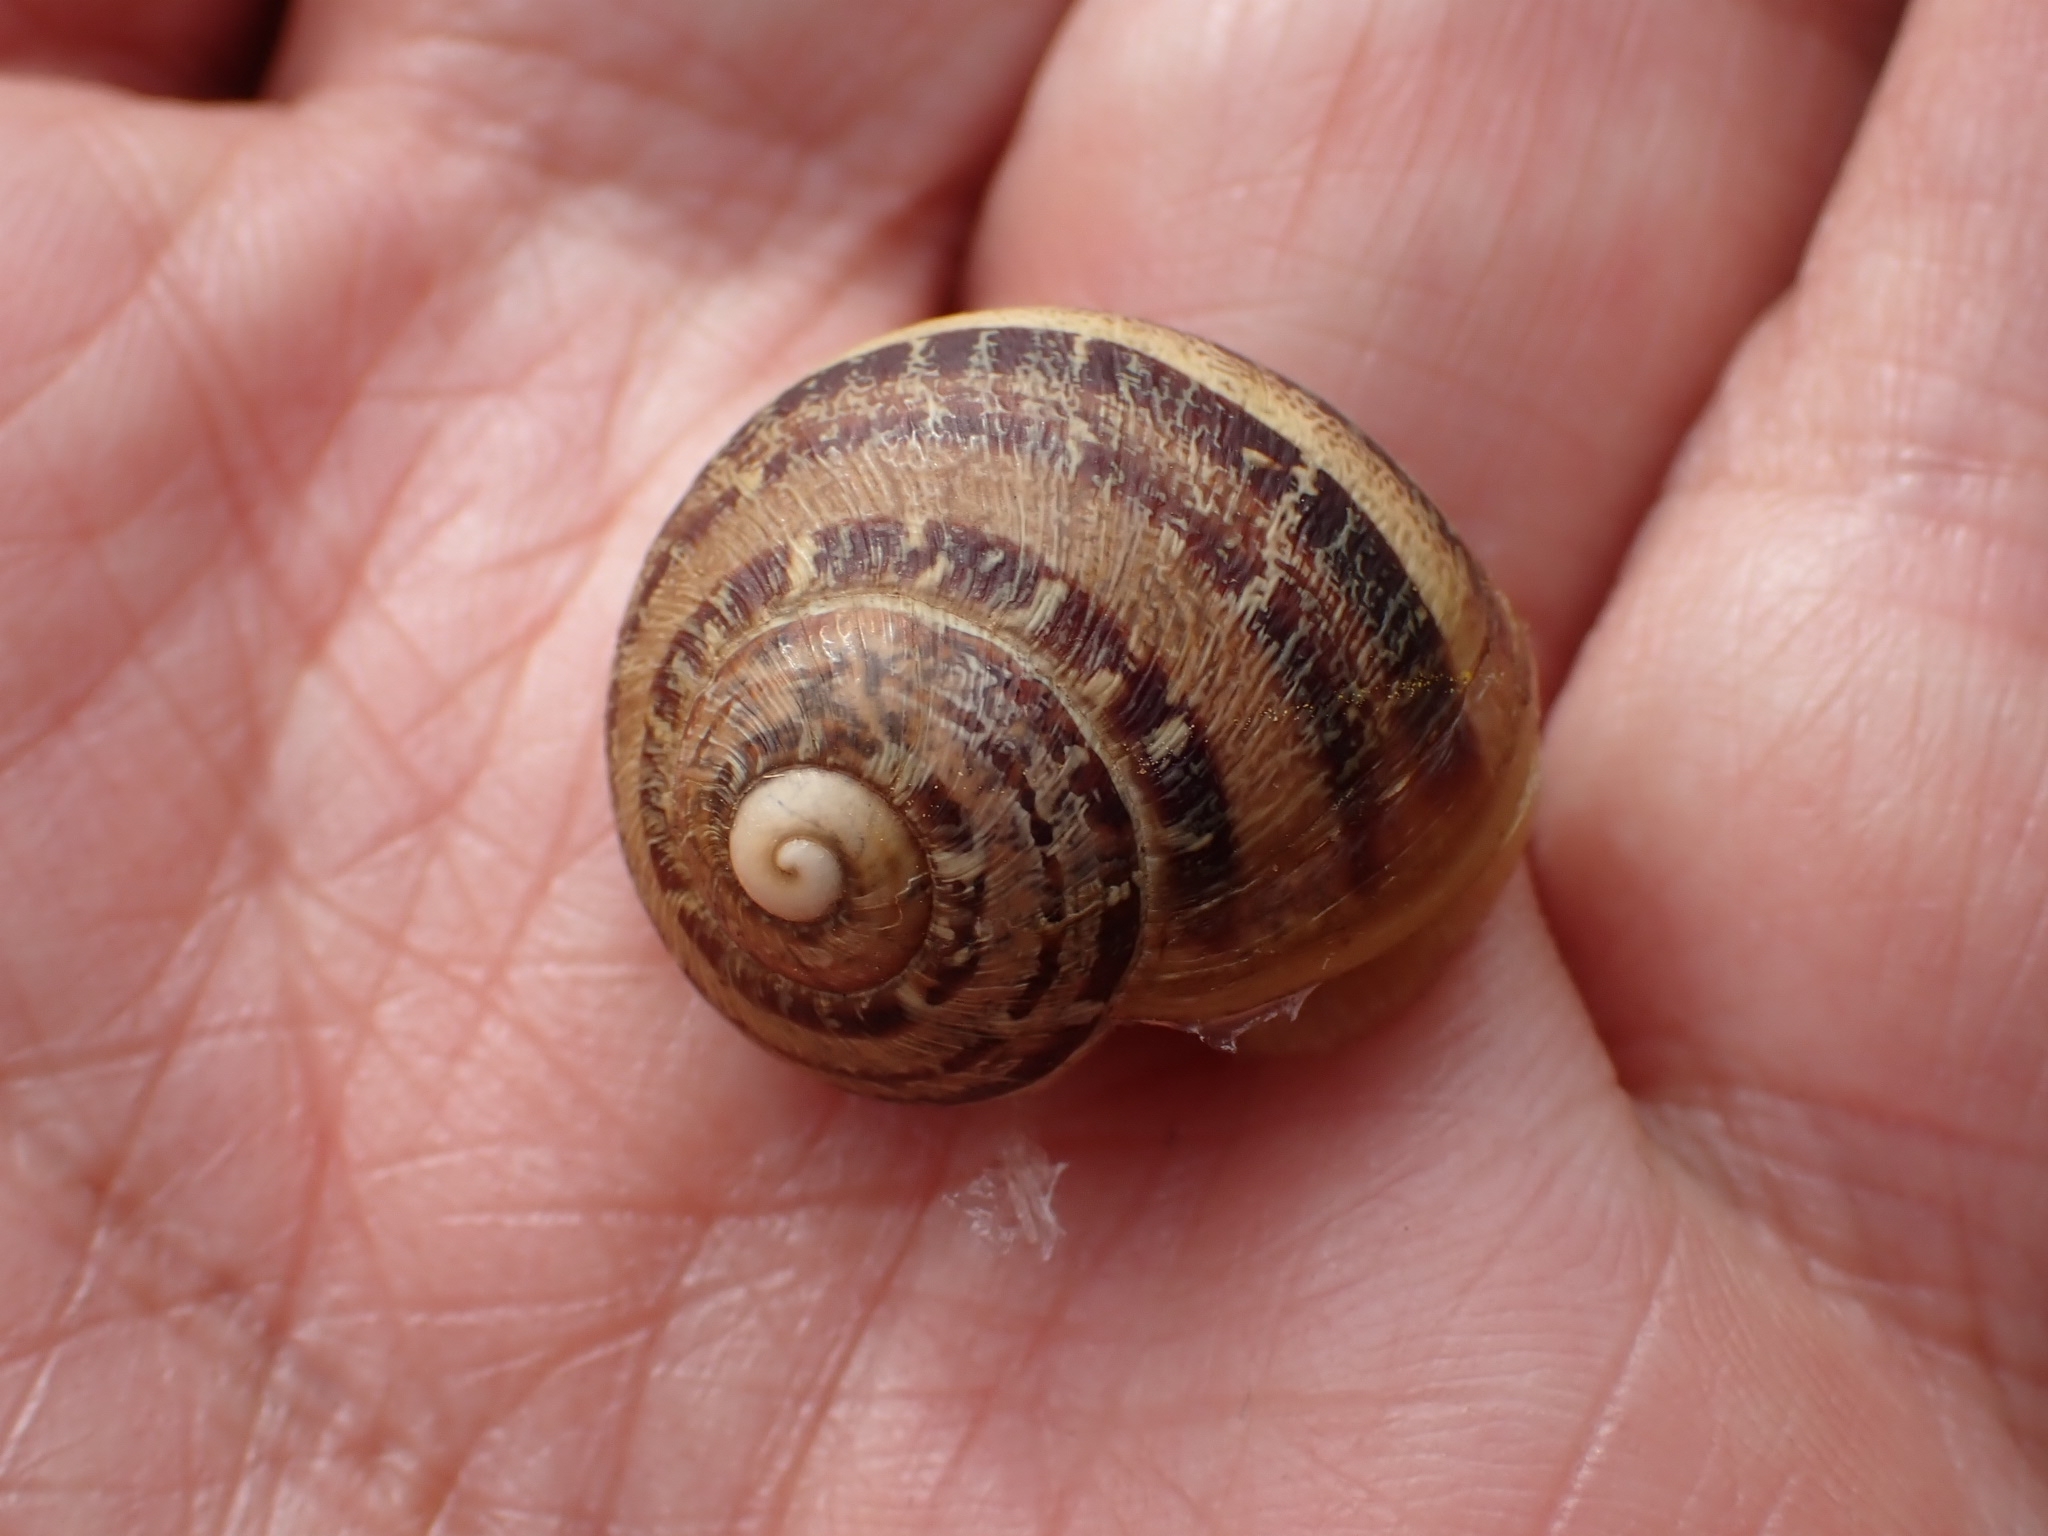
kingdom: Animalia
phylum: Mollusca
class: Gastropoda
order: Stylommatophora
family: Helicidae
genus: Cornu
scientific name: Cornu aspersum
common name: Brown garden snail
